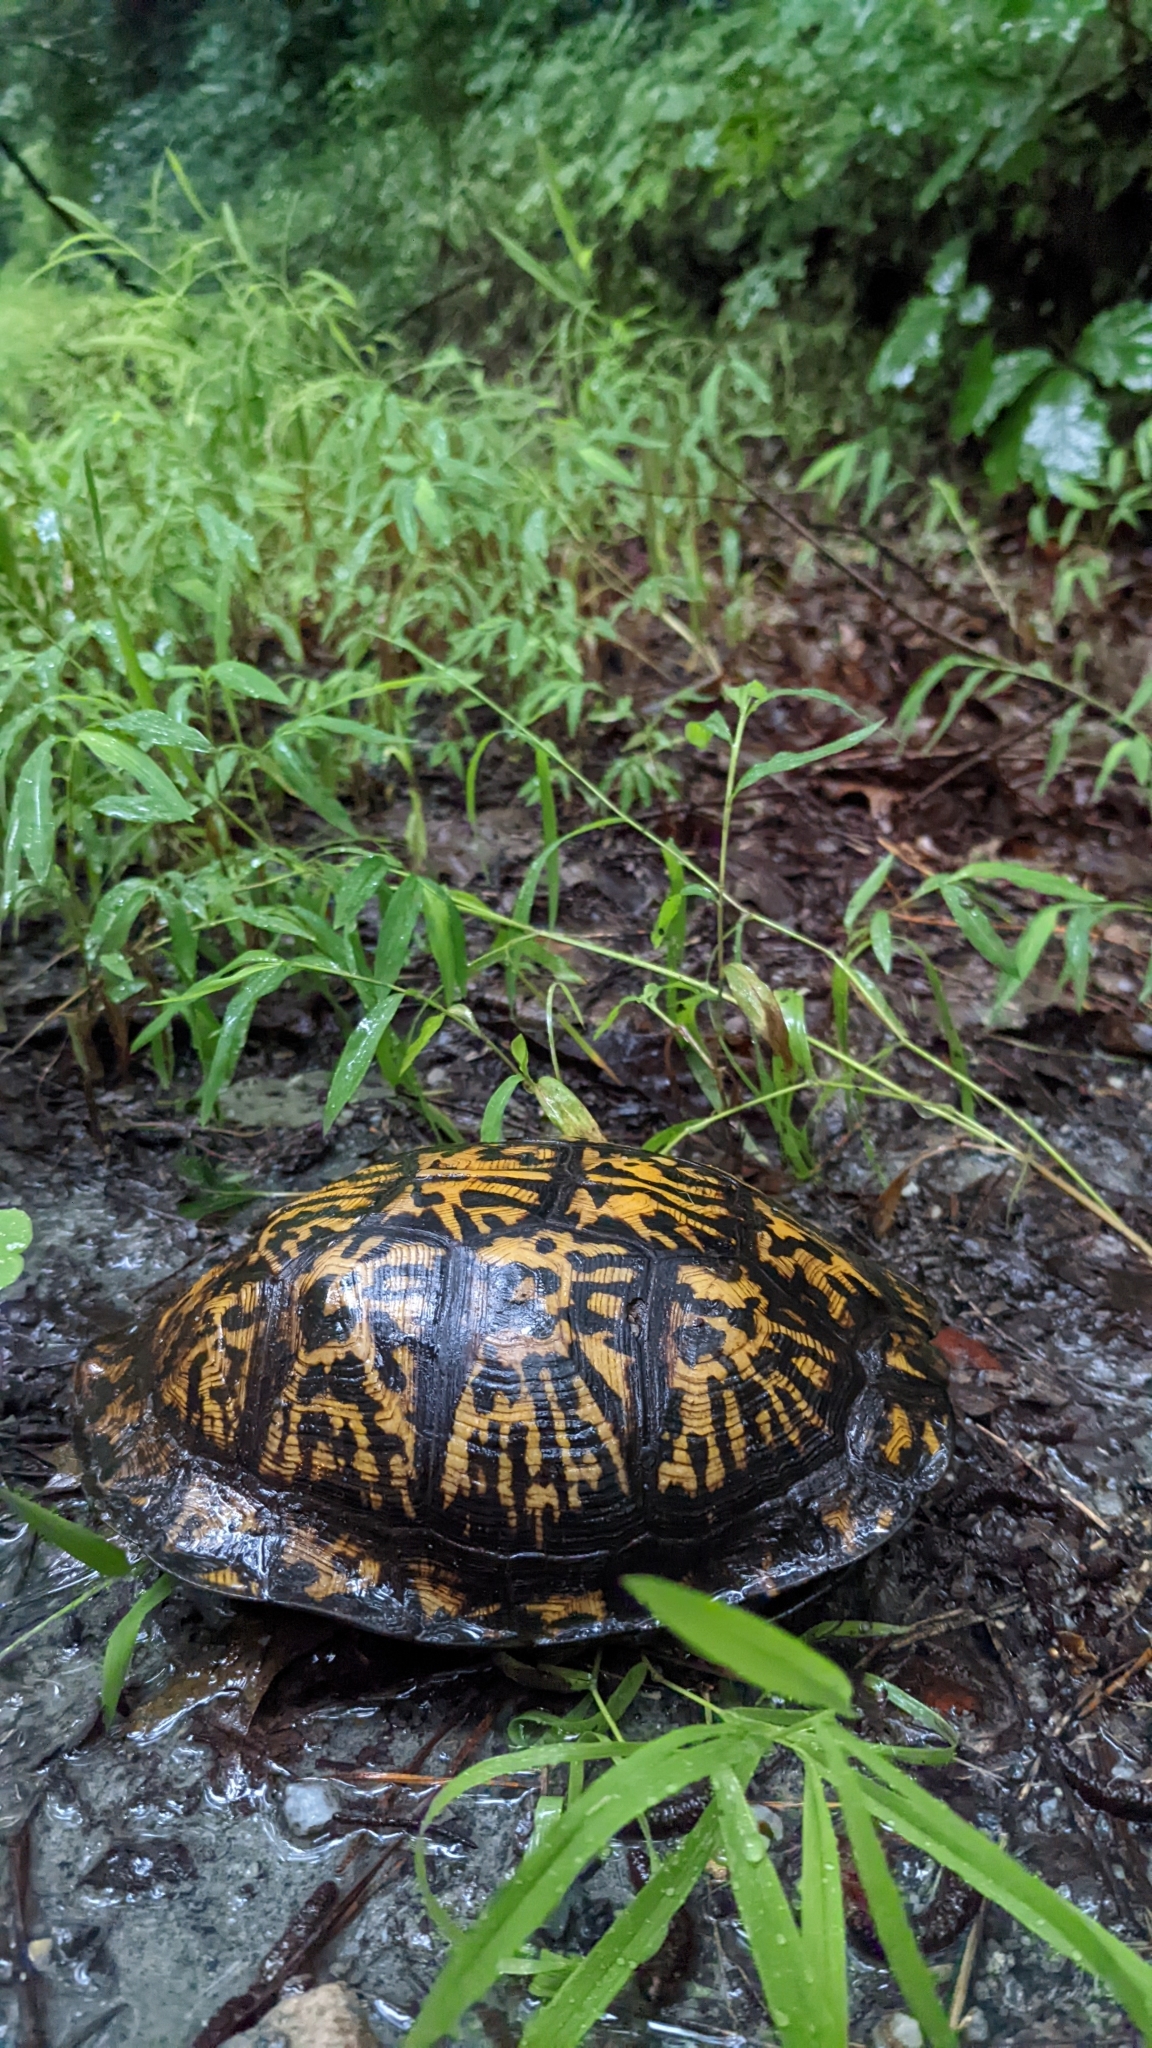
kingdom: Animalia
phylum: Chordata
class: Testudines
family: Emydidae
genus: Terrapene
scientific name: Terrapene carolina
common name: Common box turtle
